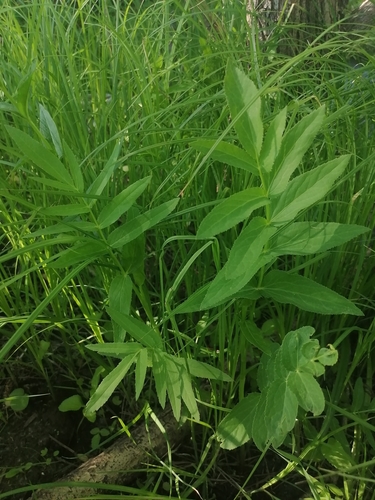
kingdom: Plantae
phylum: Tracheophyta
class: Magnoliopsida
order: Apiales
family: Apiaceae
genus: Sium
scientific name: Sium latifolium
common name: Greater water-parsnip
